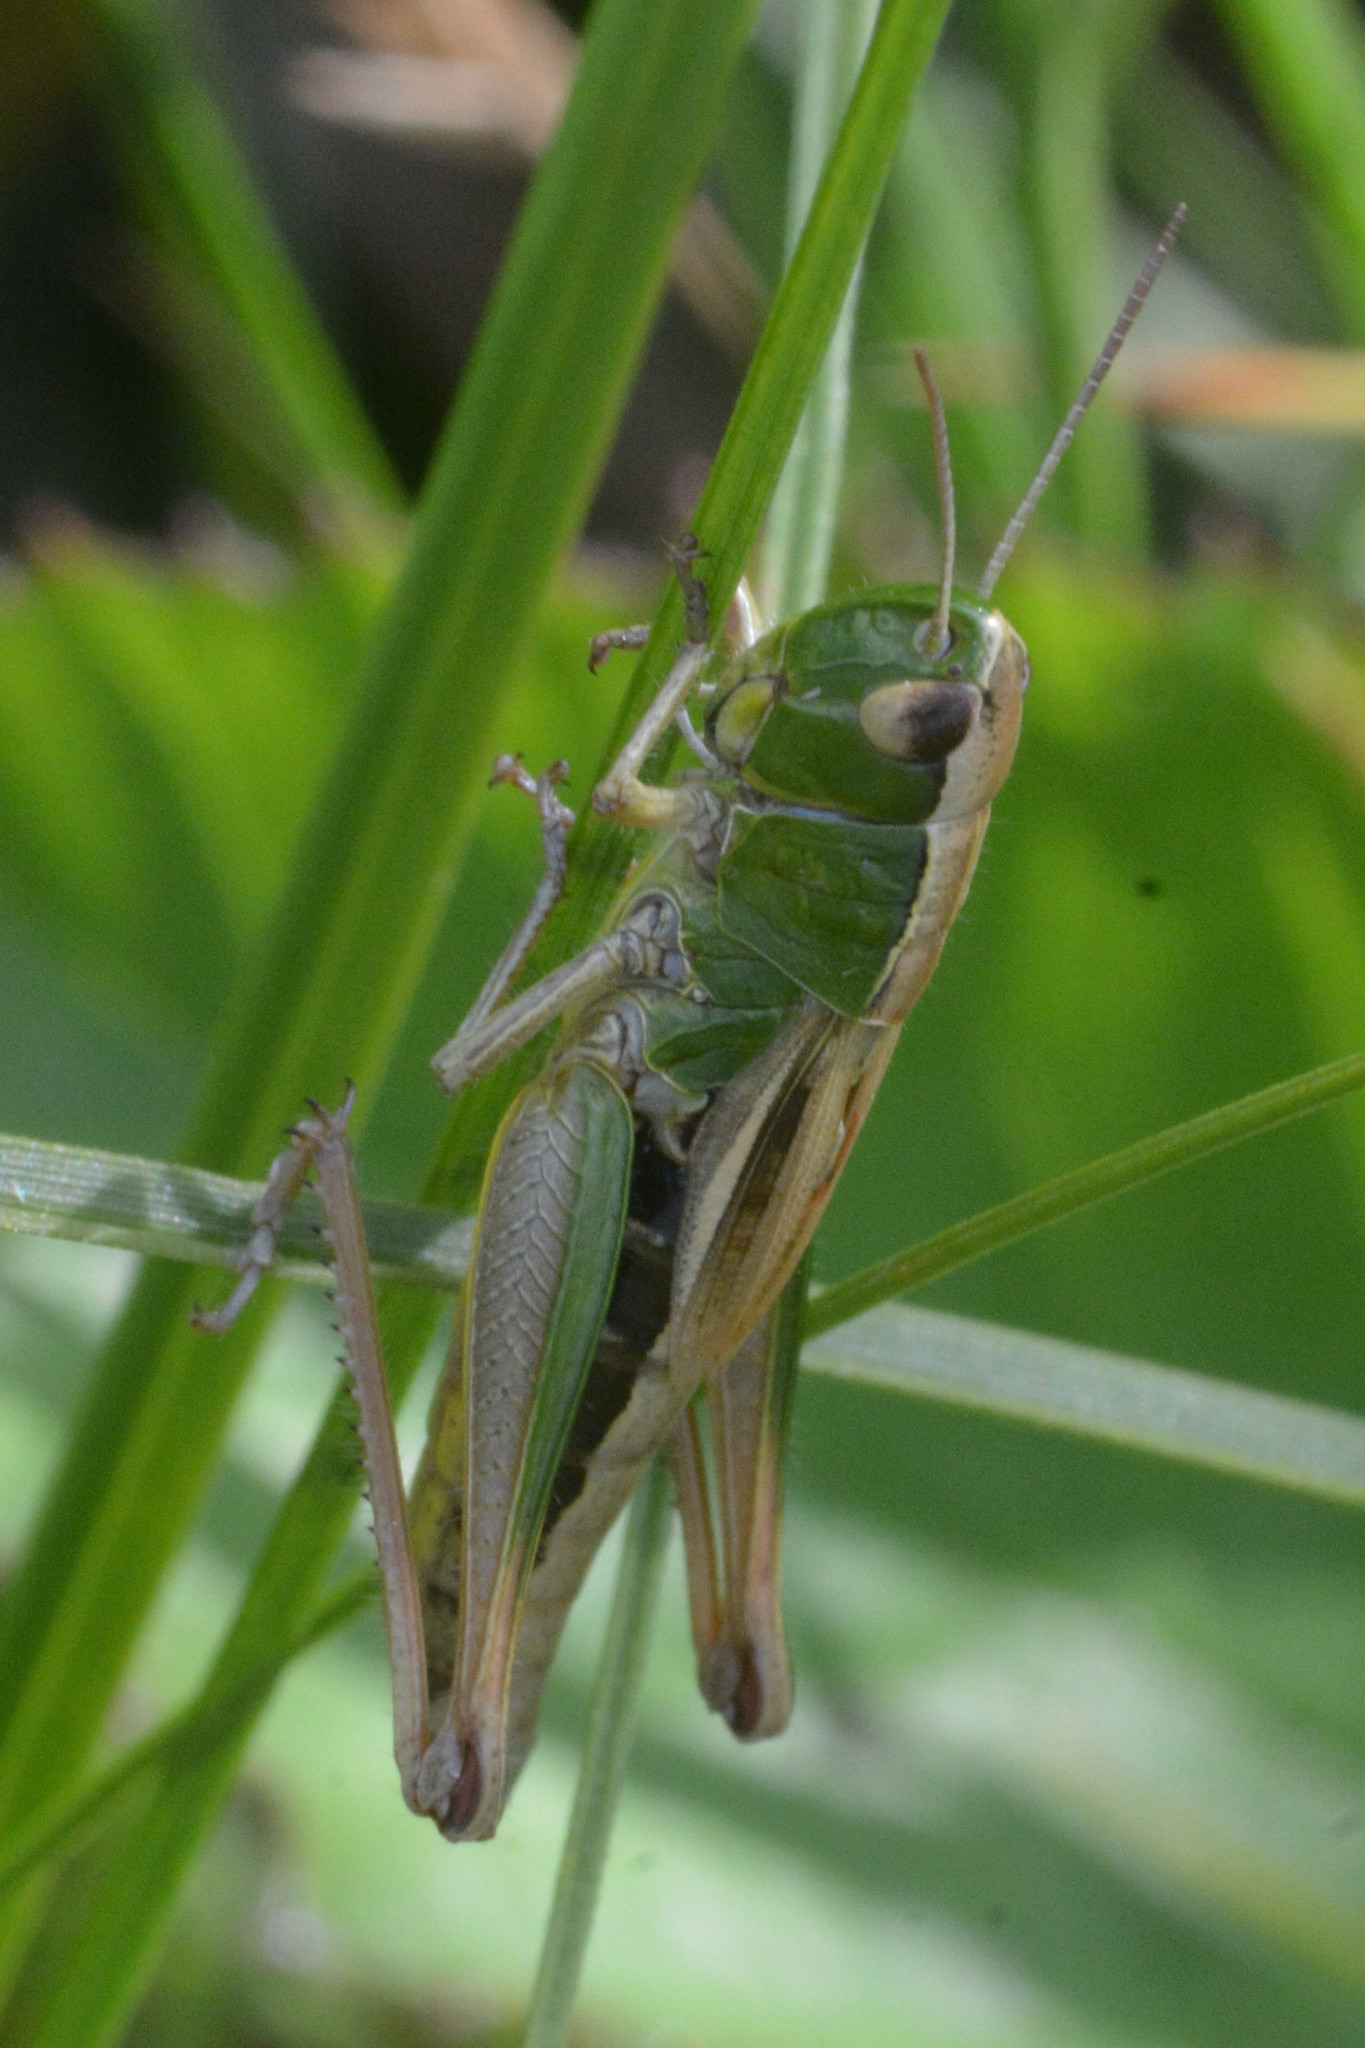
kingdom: Animalia
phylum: Arthropoda
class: Insecta
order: Orthoptera
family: Acrididae
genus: Pseudochorthippus
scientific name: Pseudochorthippus parallelus
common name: Meadow grasshopper
